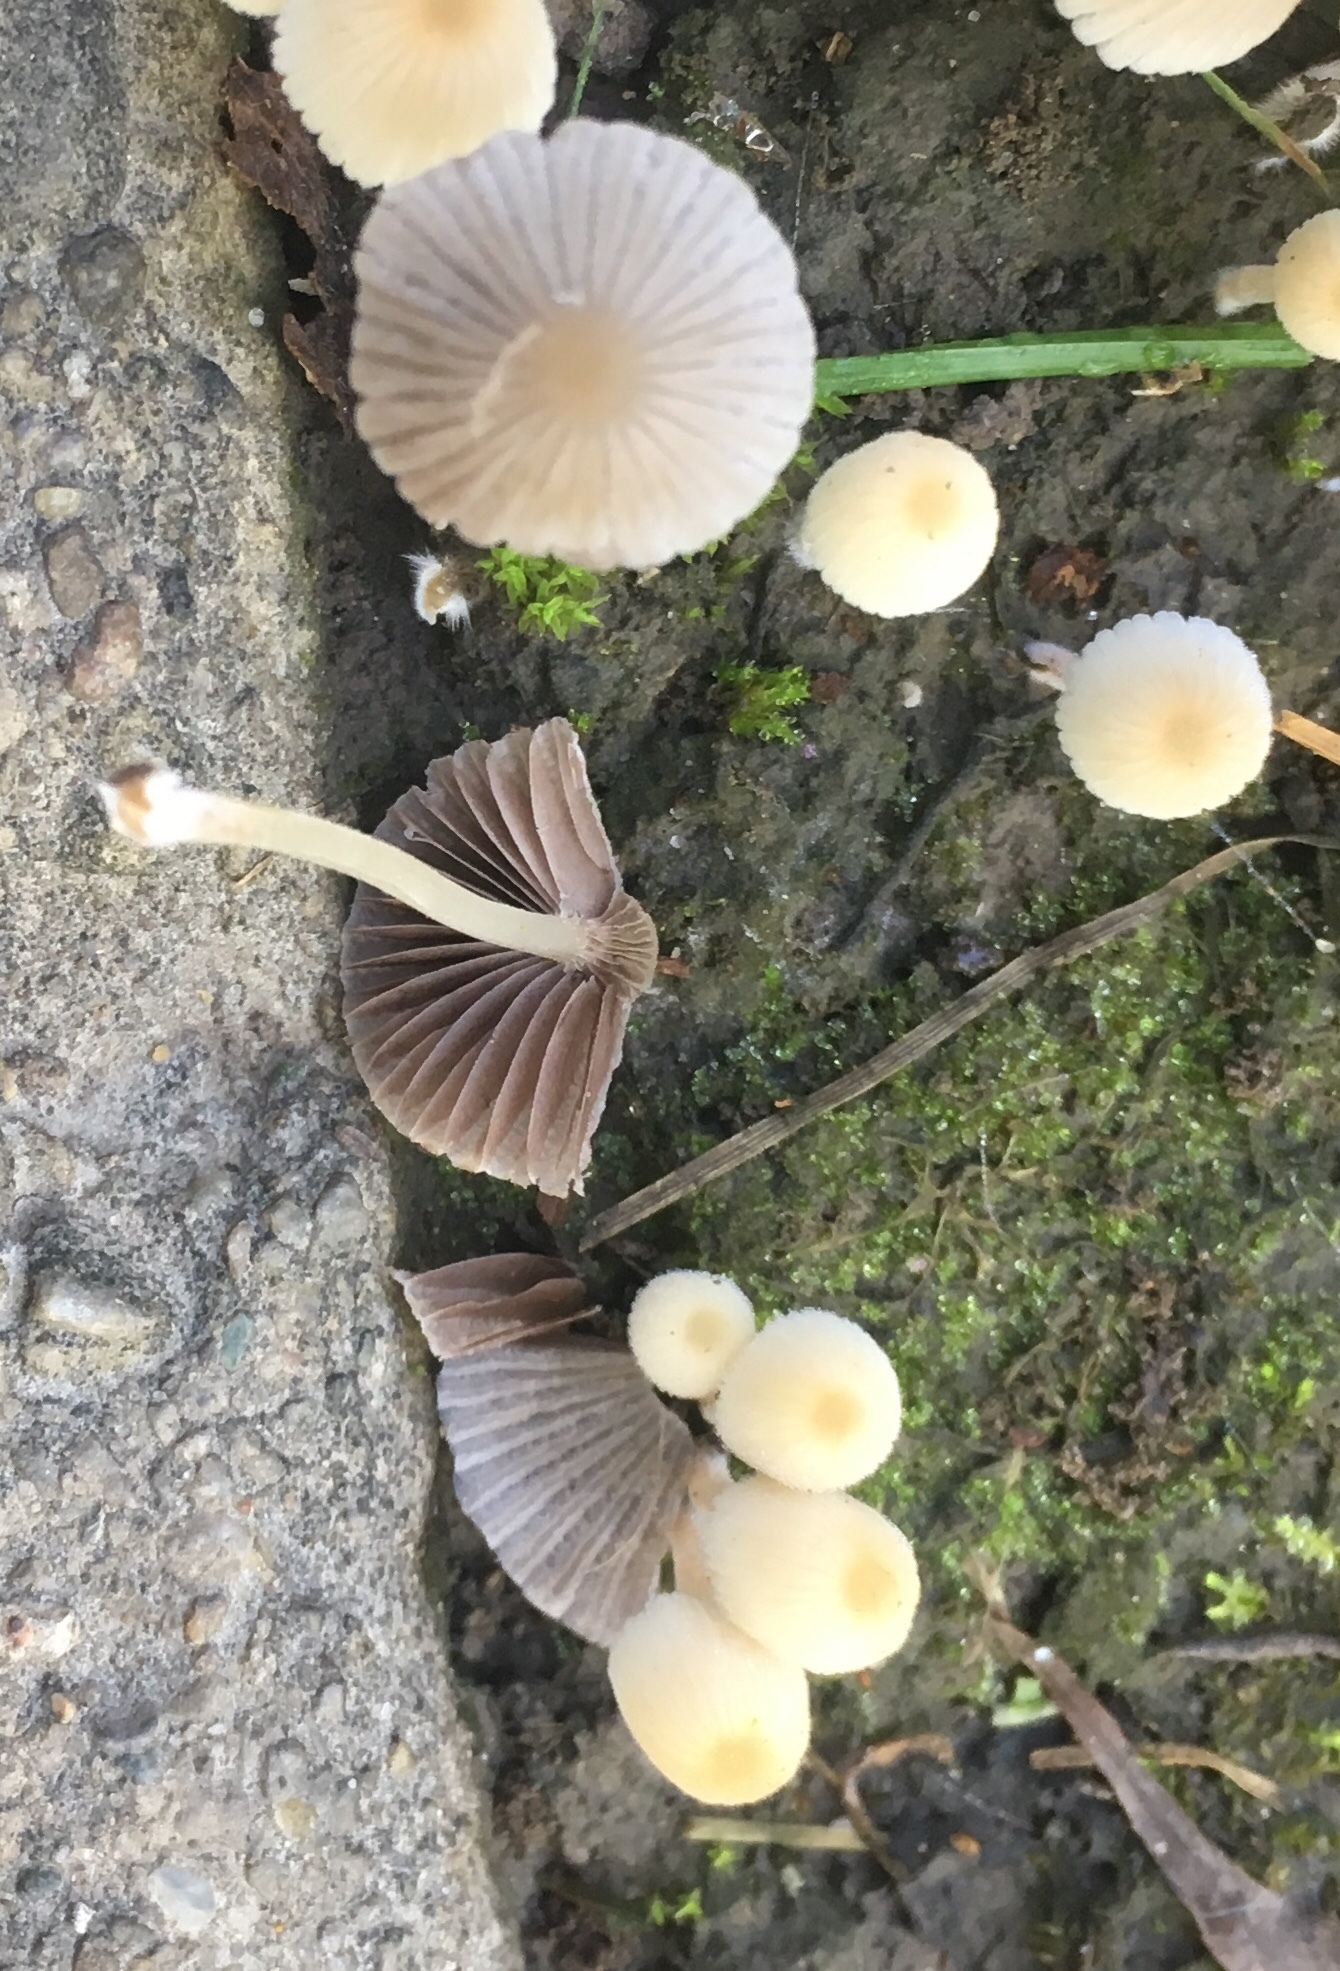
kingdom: Fungi
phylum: Basidiomycota
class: Agaricomycetes
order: Agaricales
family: Psathyrellaceae
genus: Coprinellus
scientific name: Coprinellus disseminatus
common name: Fairies' bonnets
